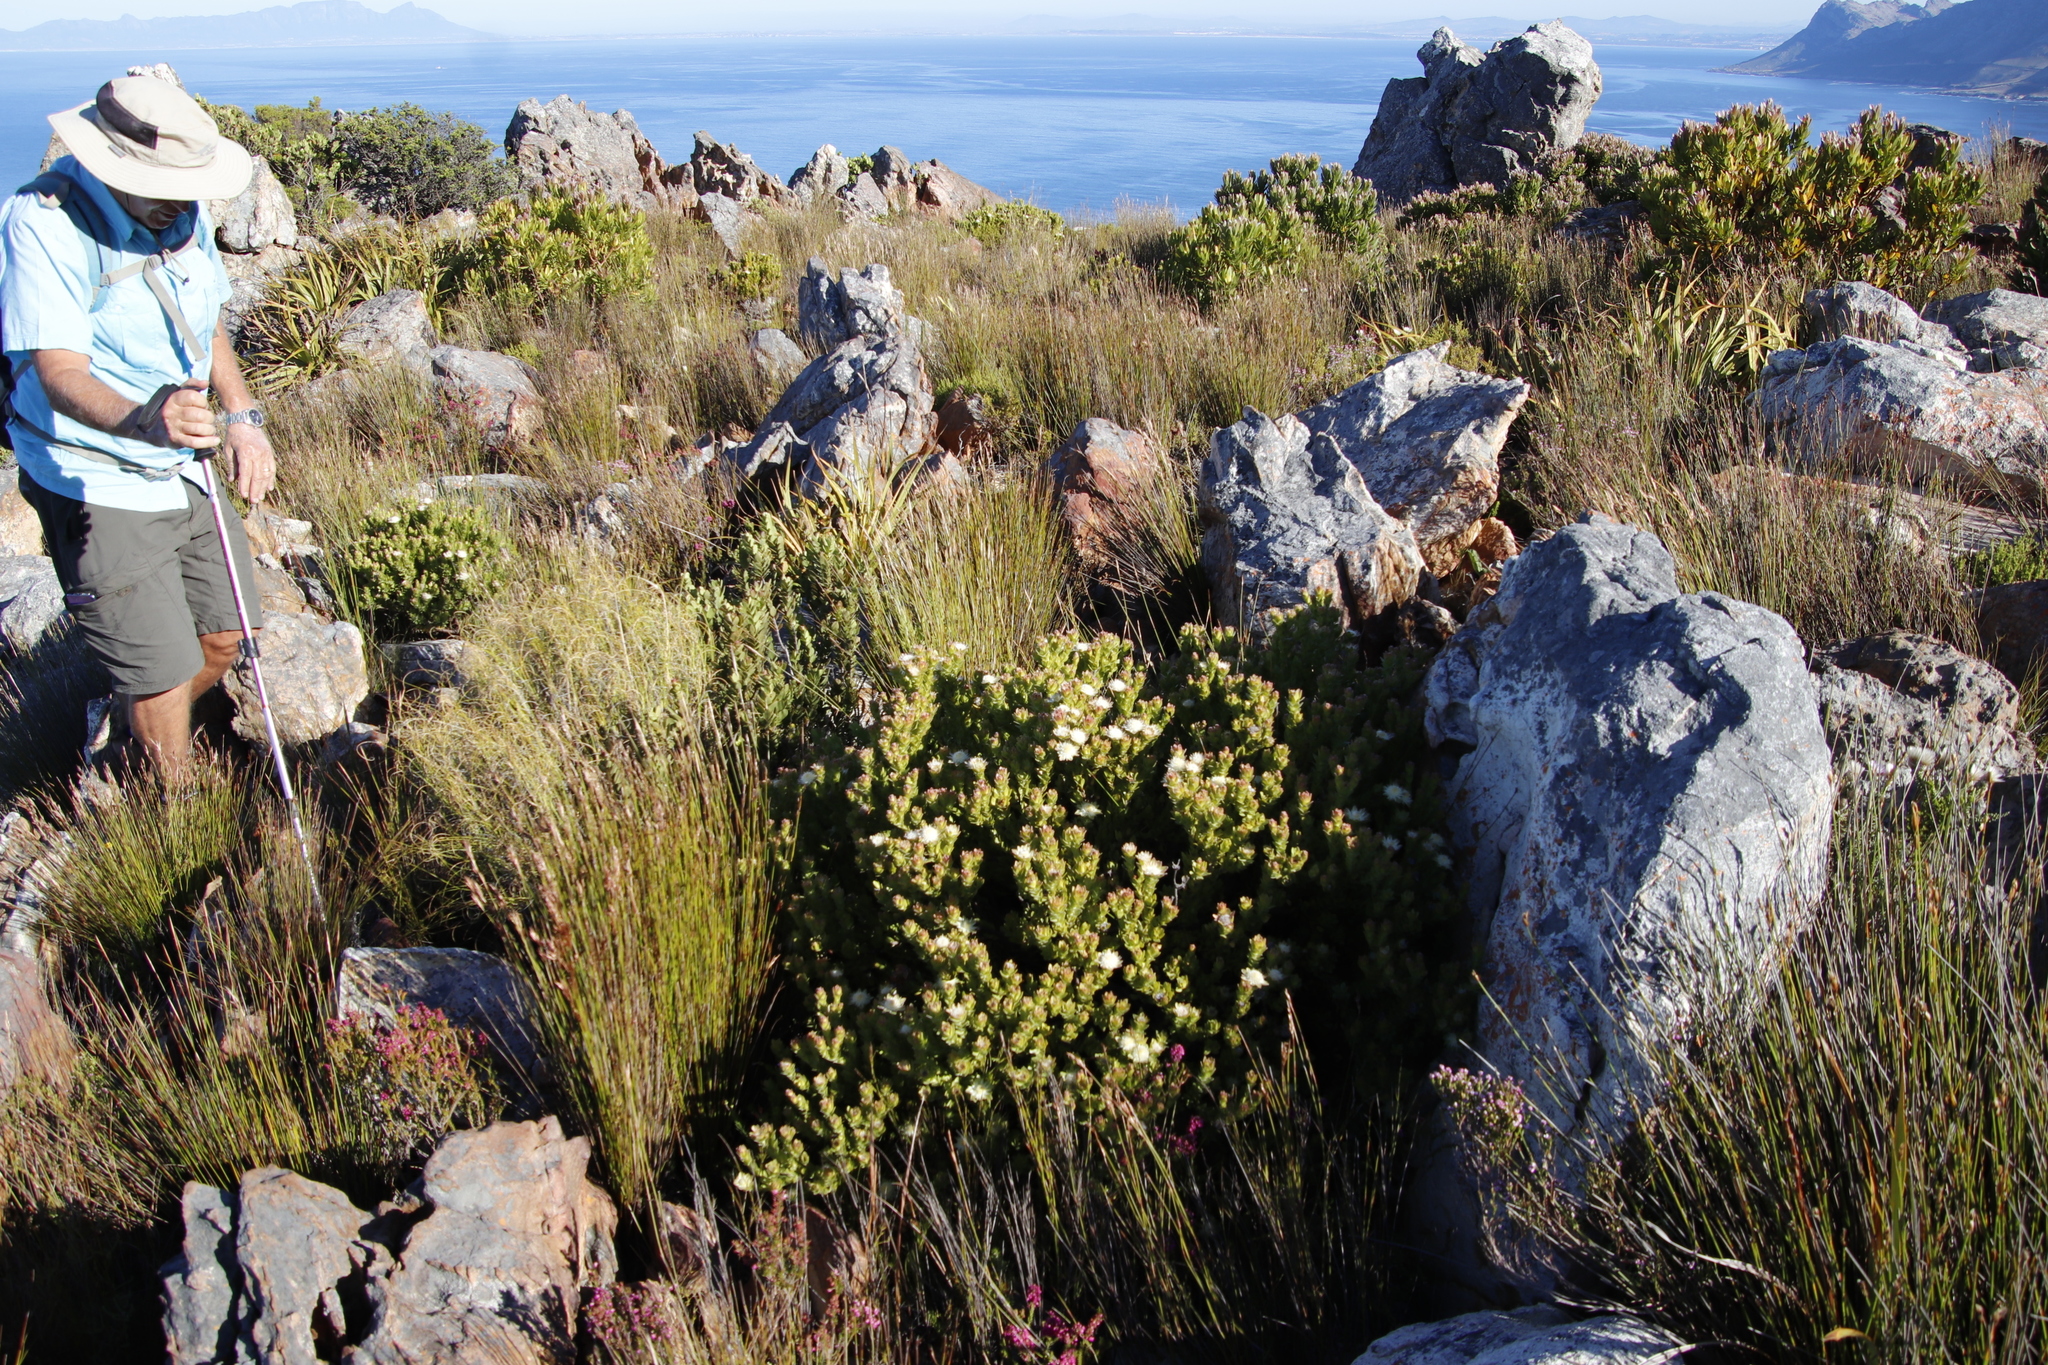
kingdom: Plantae
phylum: Tracheophyta
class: Magnoliopsida
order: Proteales
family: Proteaceae
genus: Diastella
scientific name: Diastella thymelaeoides
